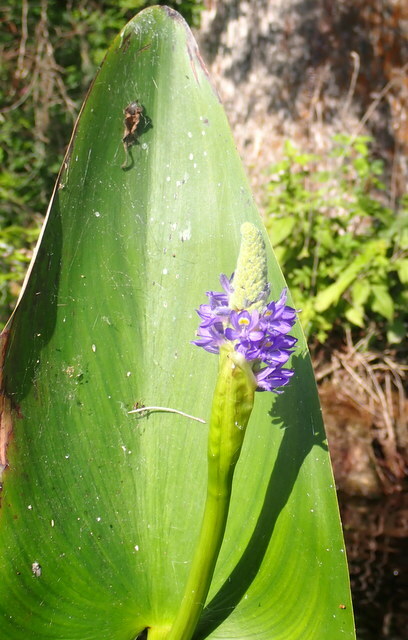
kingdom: Plantae
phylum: Tracheophyta
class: Liliopsida
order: Commelinales
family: Pontederiaceae
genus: Pontederia
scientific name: Pontederia cordata
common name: Pickerelweed
